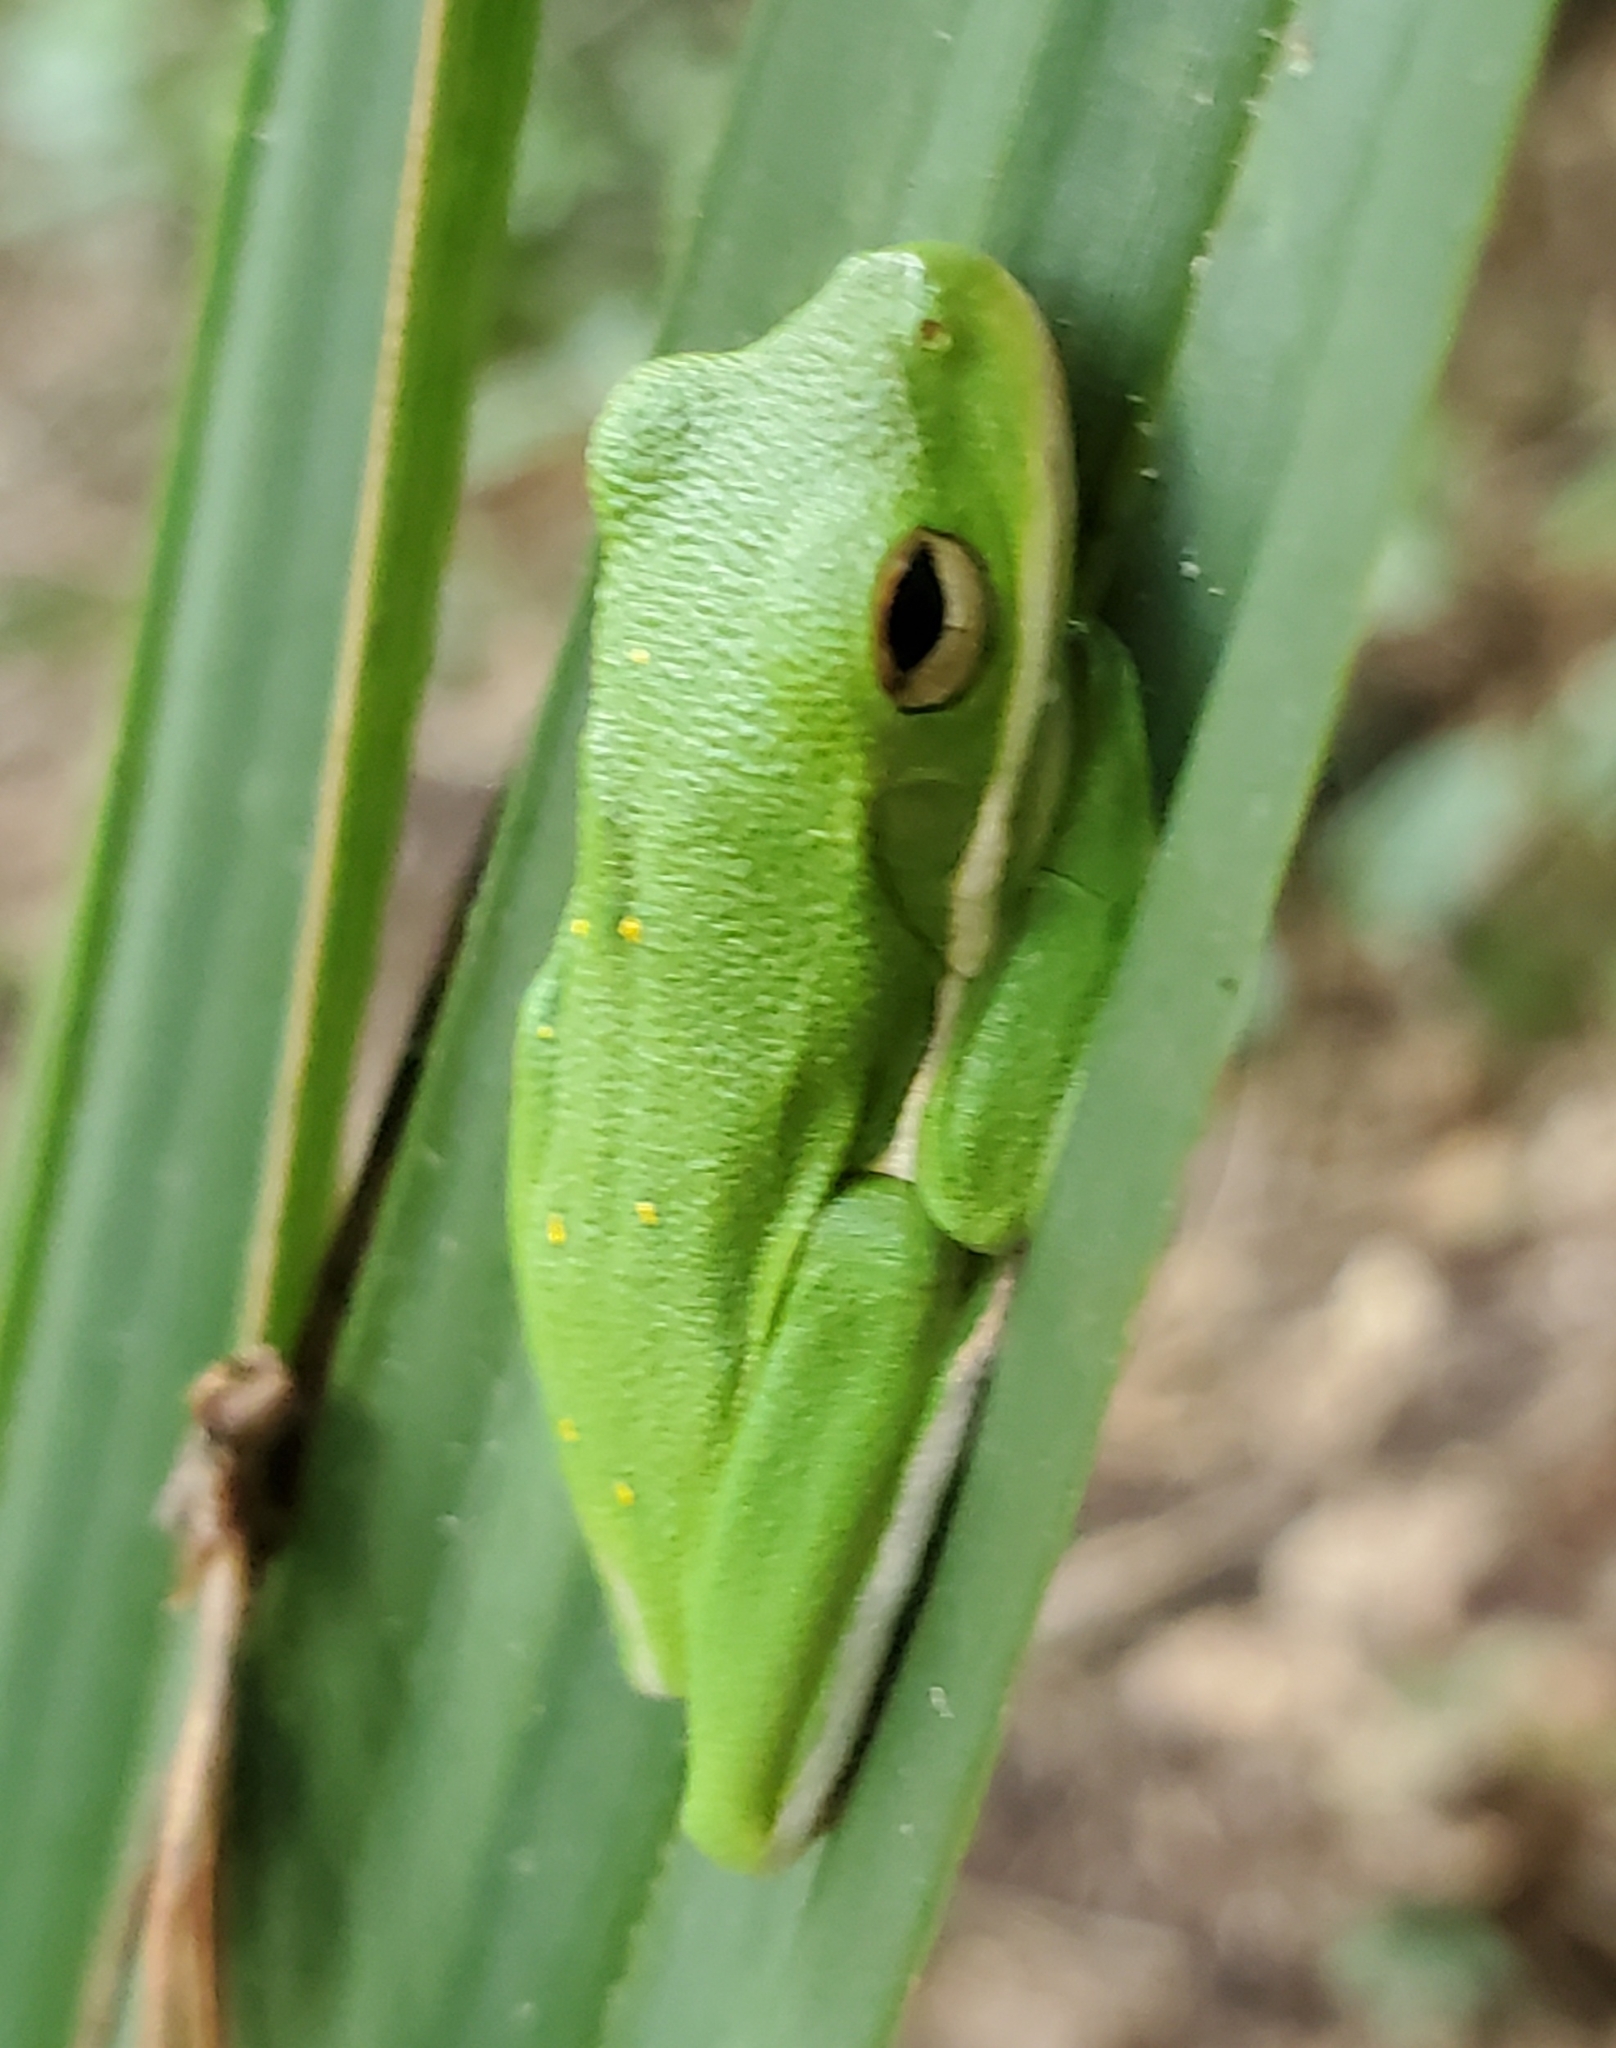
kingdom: Animalia
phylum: Chordata
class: Amphibia
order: Anura
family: Hylidae
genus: Dryophytes
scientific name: Dryophytes cinereus
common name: Green treefrog
